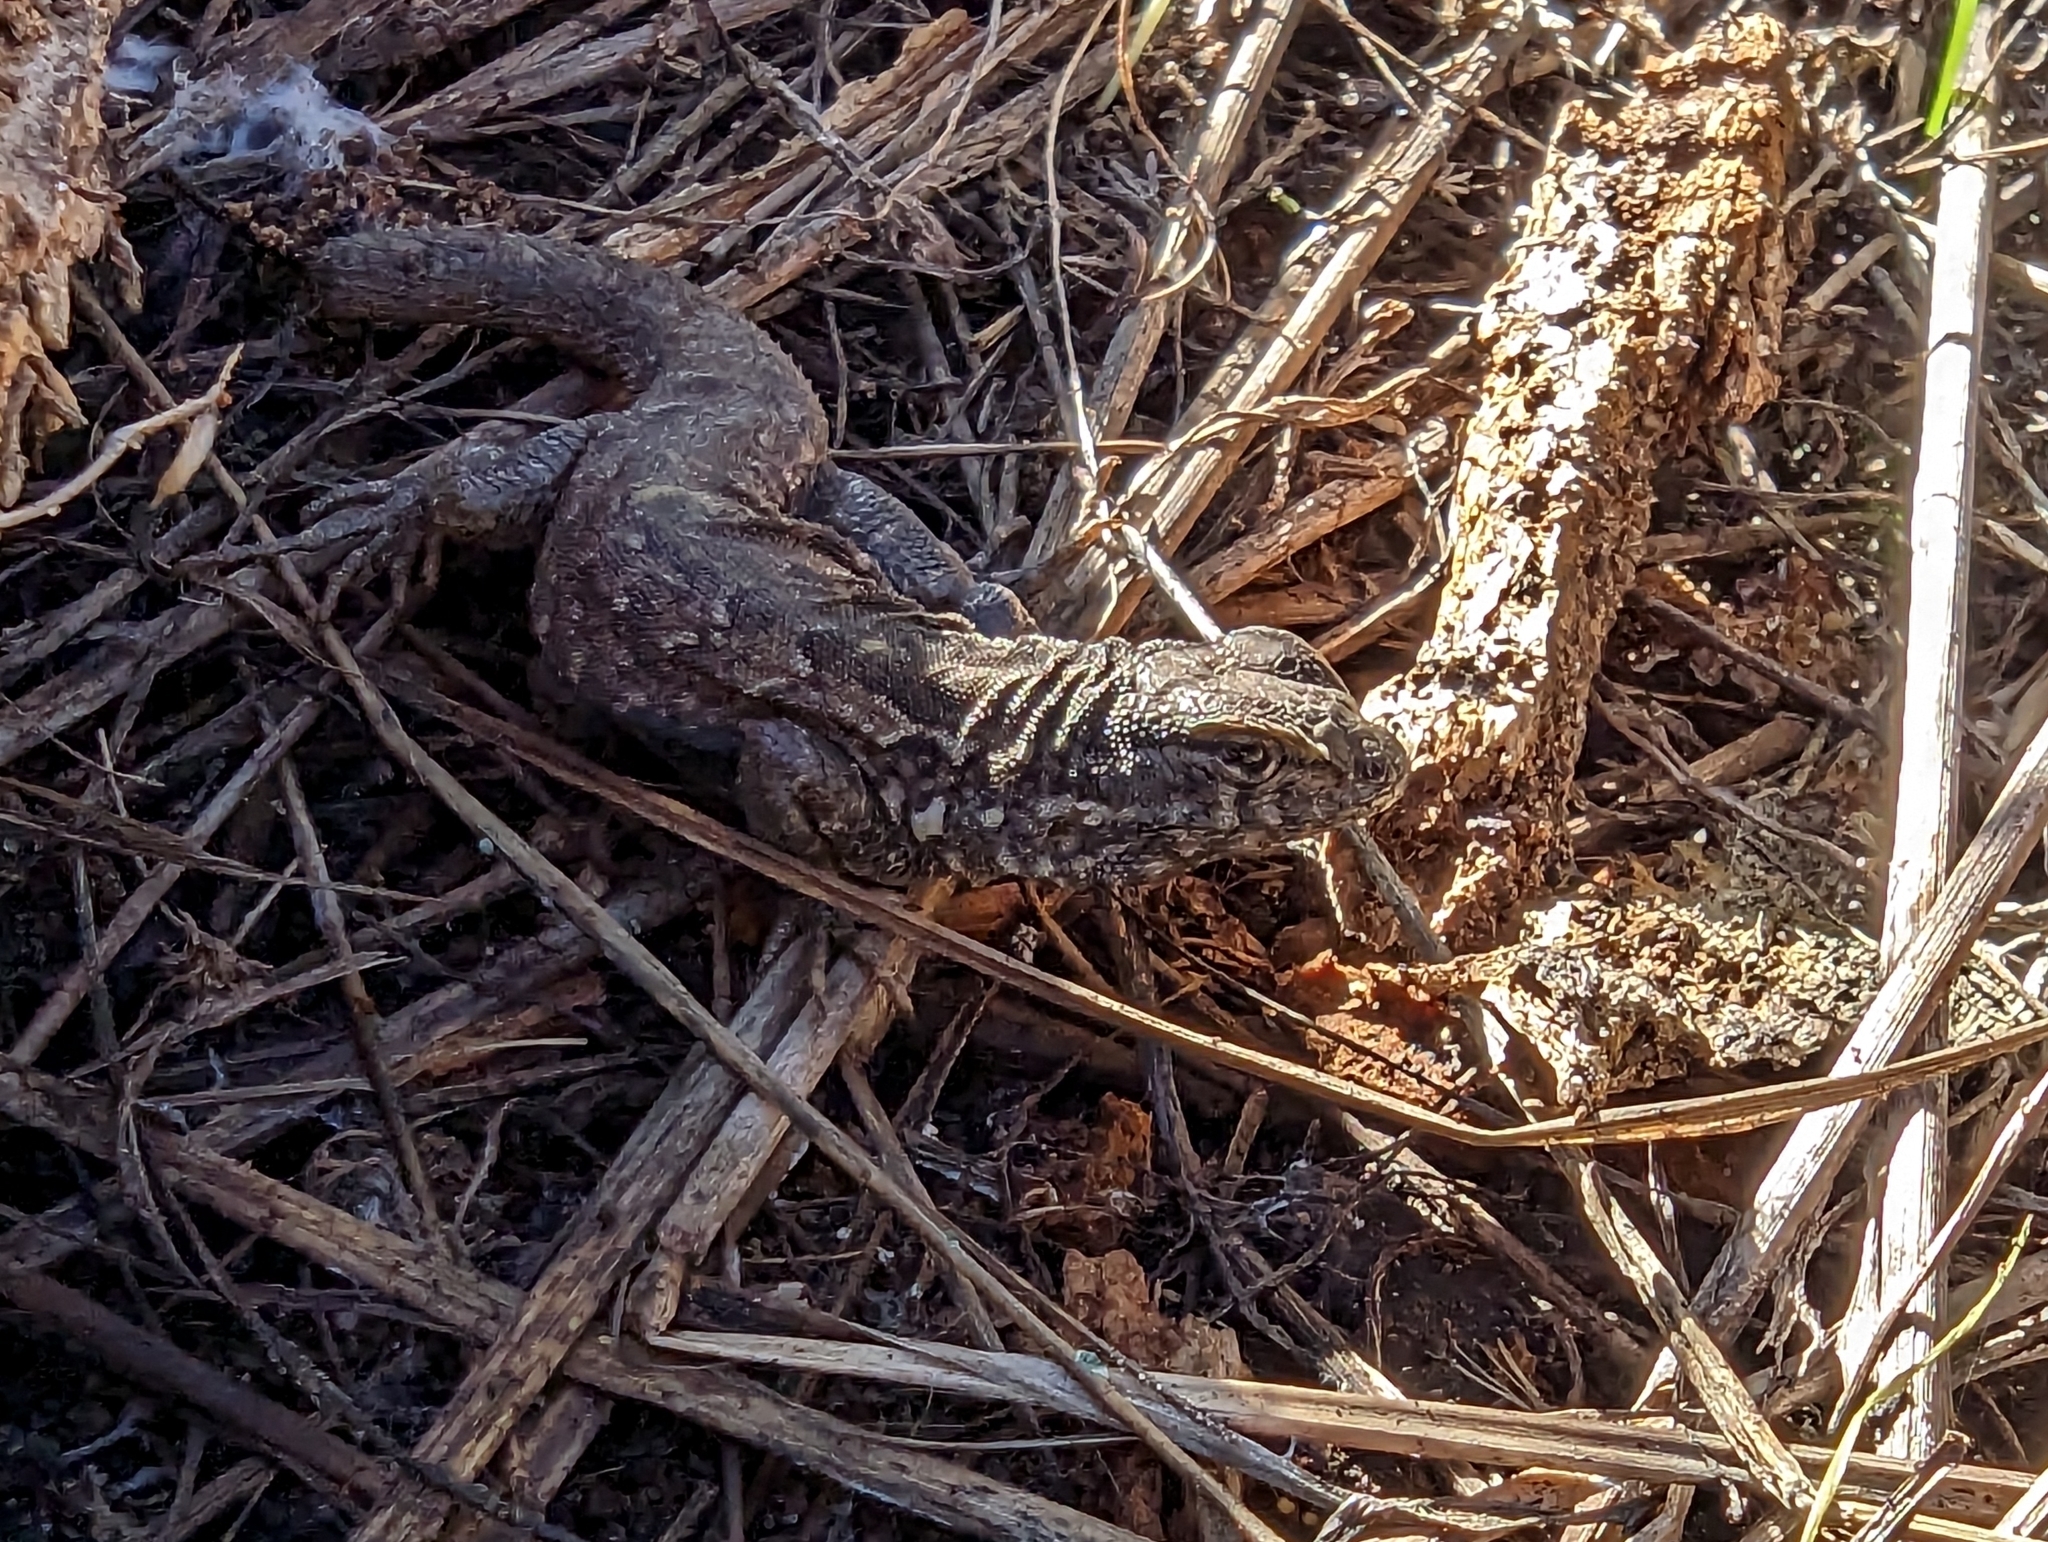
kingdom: Animalia
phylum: Chordata
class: Squamata
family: Phrynosomatidae
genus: Sceloporus
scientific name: Sceloporus occidentalis
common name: Western fence lizard
